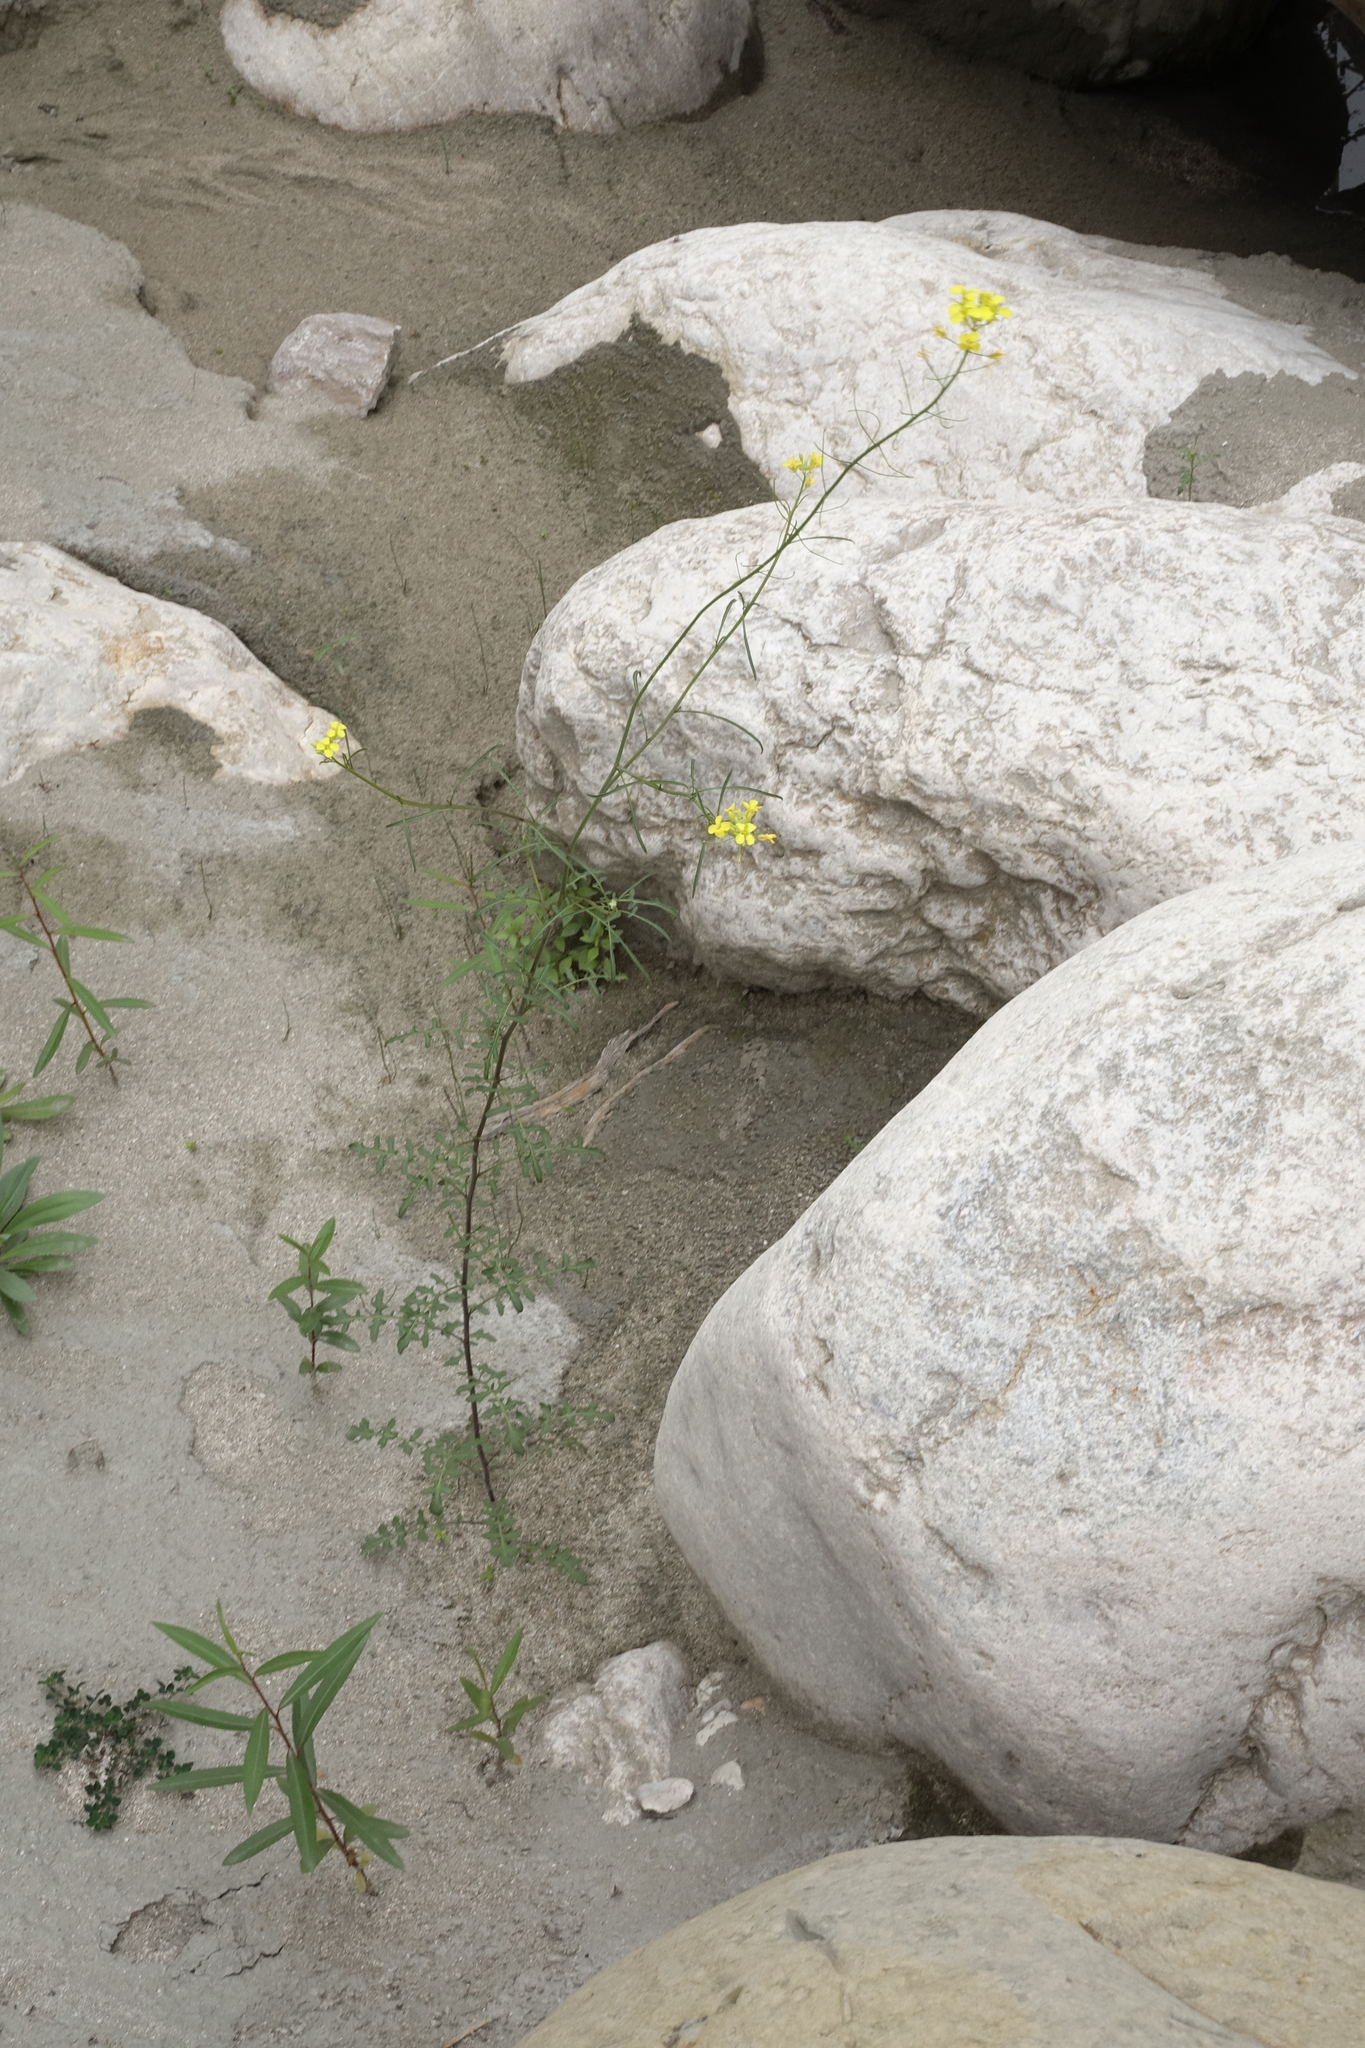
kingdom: Plantae
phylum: Tracheophyta
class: Magnoliopsida
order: Brassicales
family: Brassicaceae
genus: Sisymbrium
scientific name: Sisymbrium loeselii
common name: False london-rocket
